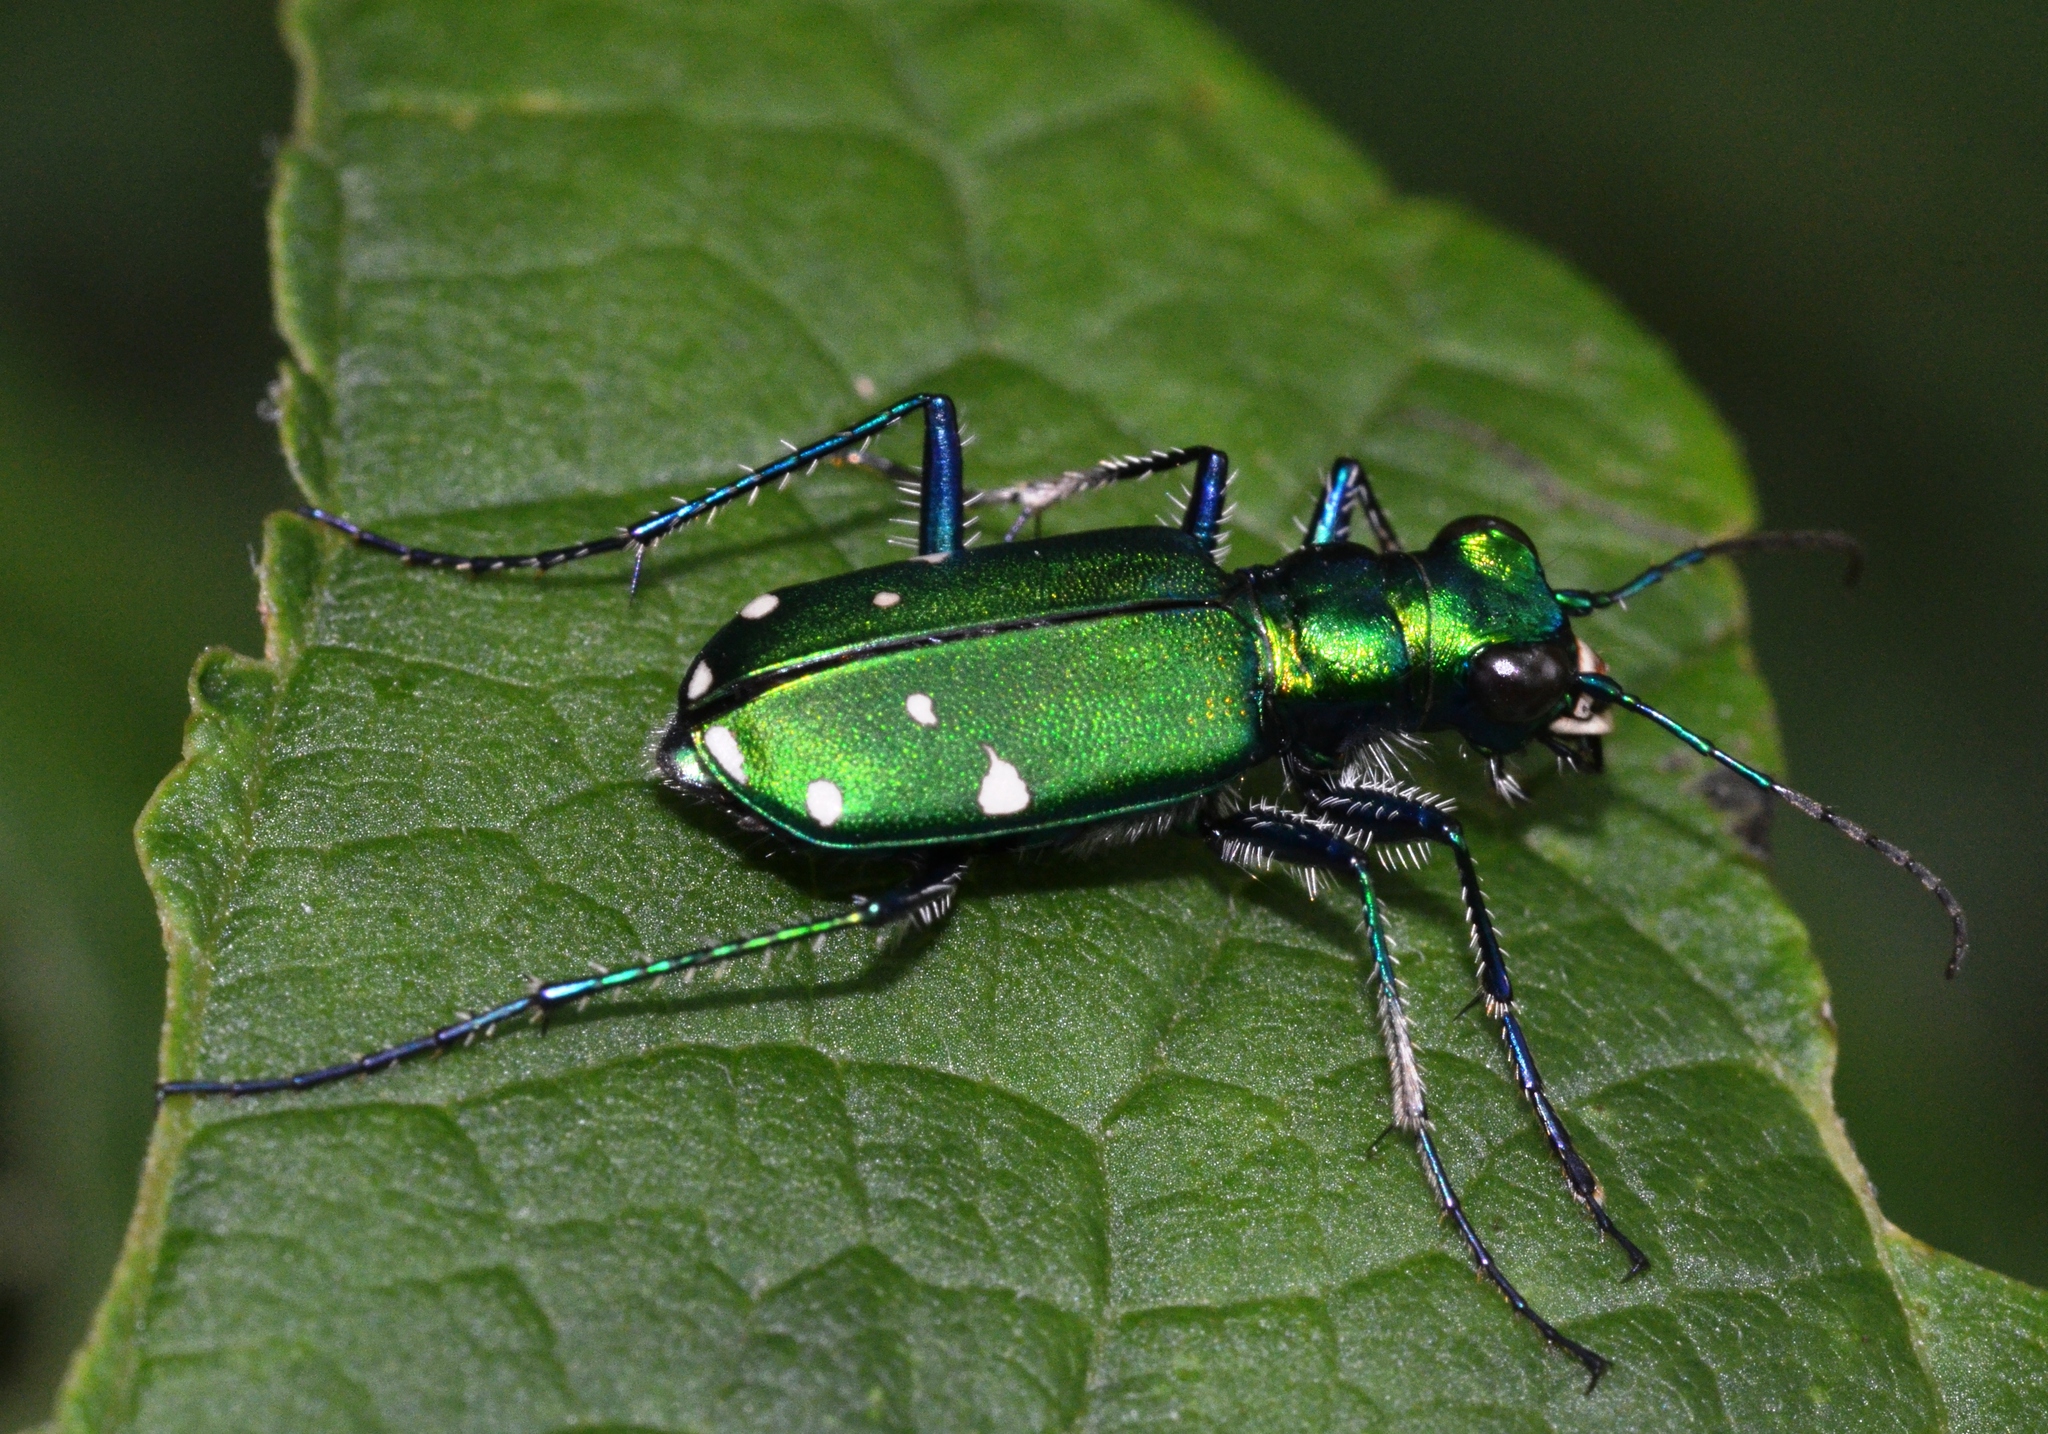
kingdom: Animalia
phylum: Arthropoda
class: Insecta
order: Coleoptera
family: Carabidae
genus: Cicindela
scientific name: Cicindela sexguttata
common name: Six-spotted tiger beetle
